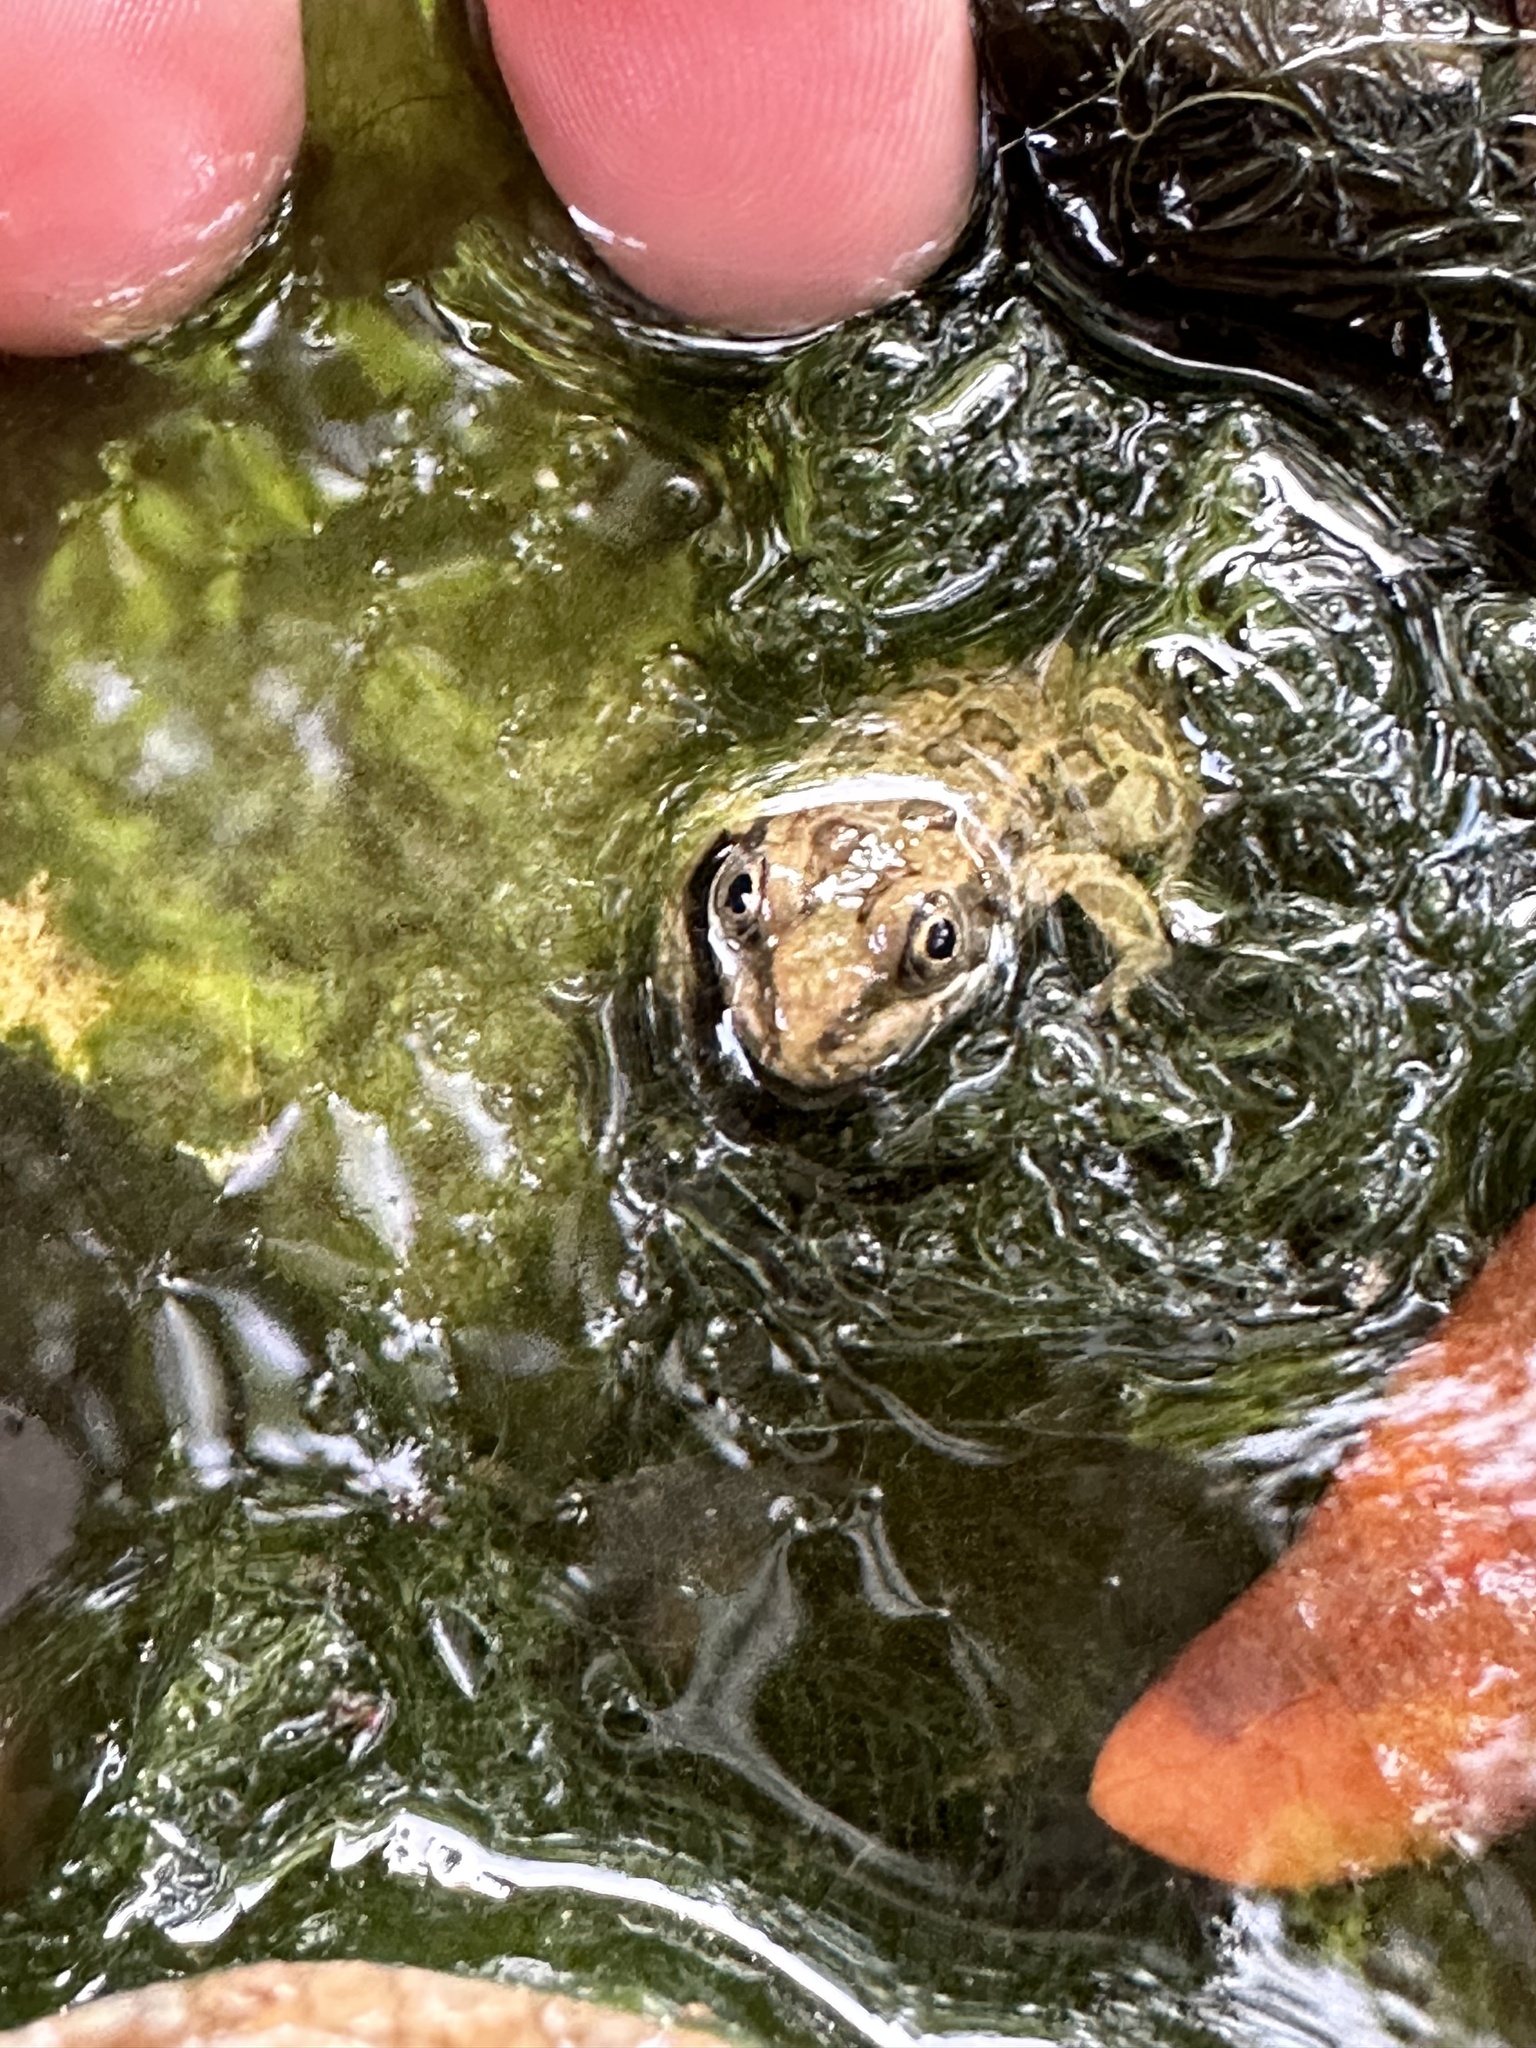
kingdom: Animalia
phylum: Chordata
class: Amphibia
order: Anura
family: Ranidae
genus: Lithobates
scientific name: Lithobates berlandieri
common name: Rio grande leopard frog
